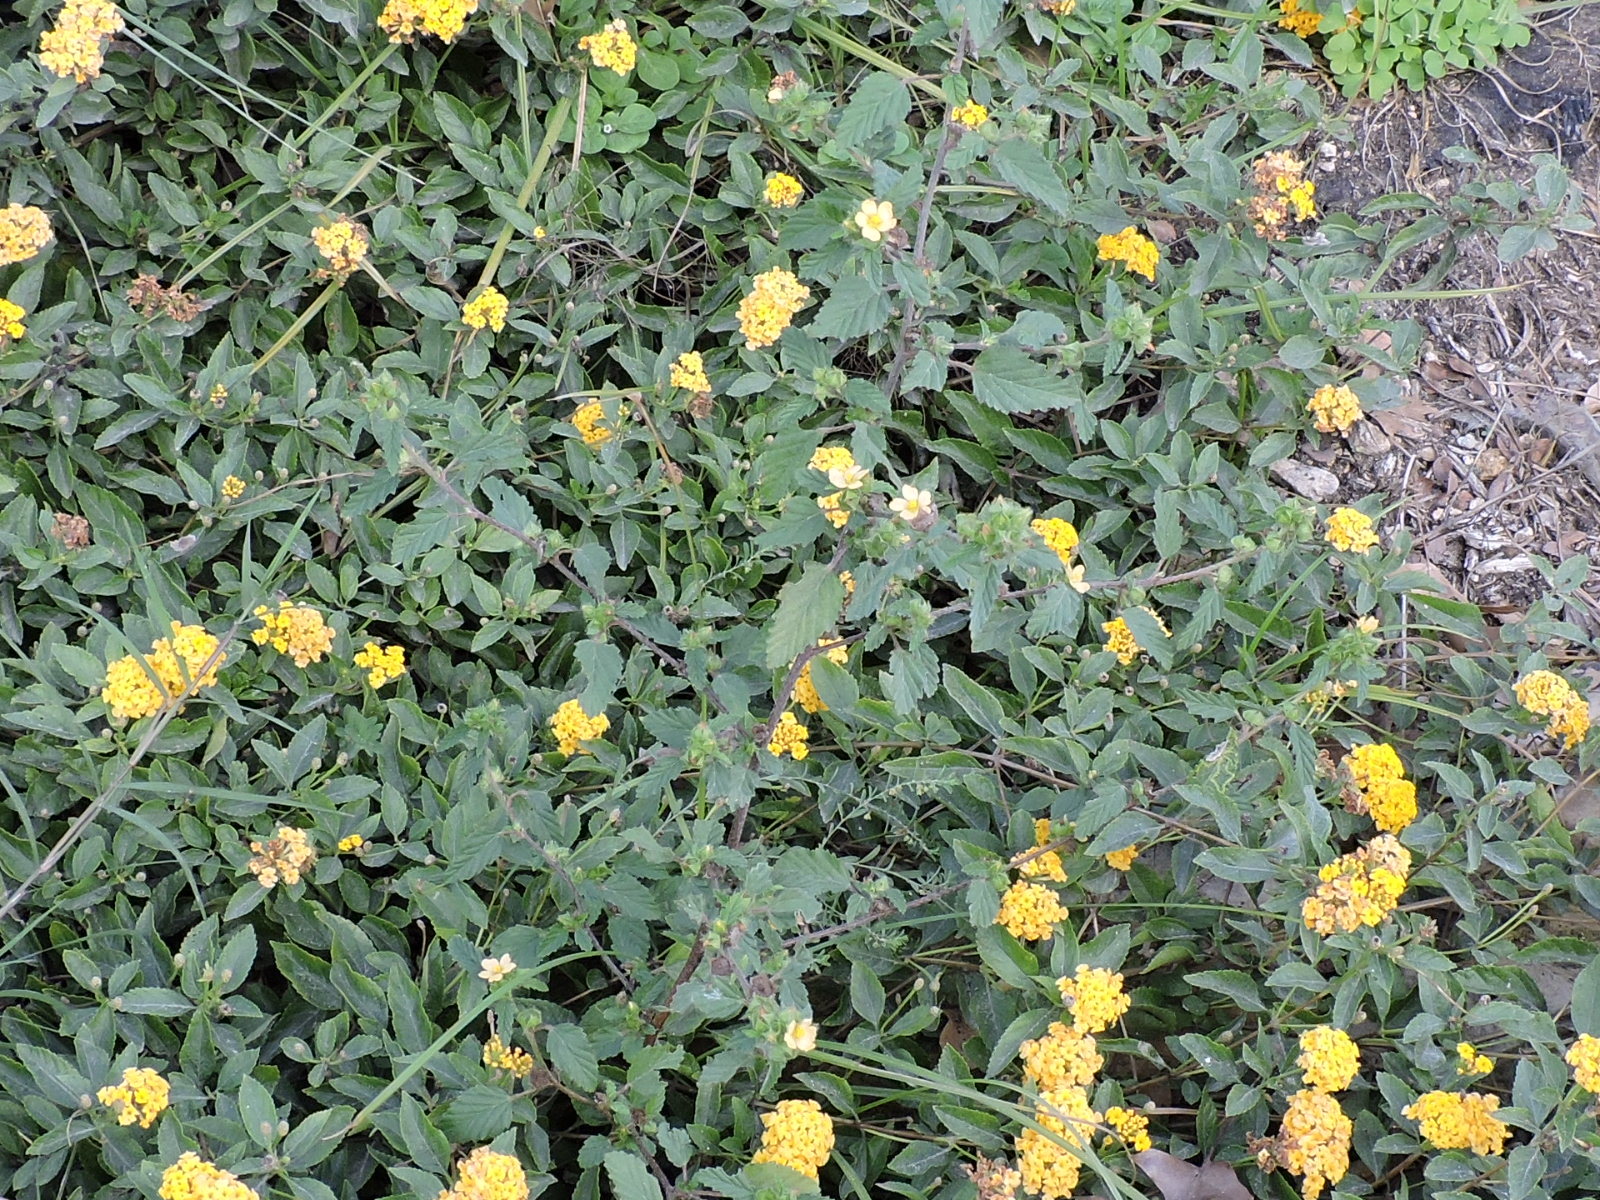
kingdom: Plantae
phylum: Tracheophyta
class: Magnoliopsida
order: Malvales
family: Malvaceae
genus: Malvastrum
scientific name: Malvastrum coromandelianum
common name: Threelobe false mallow
